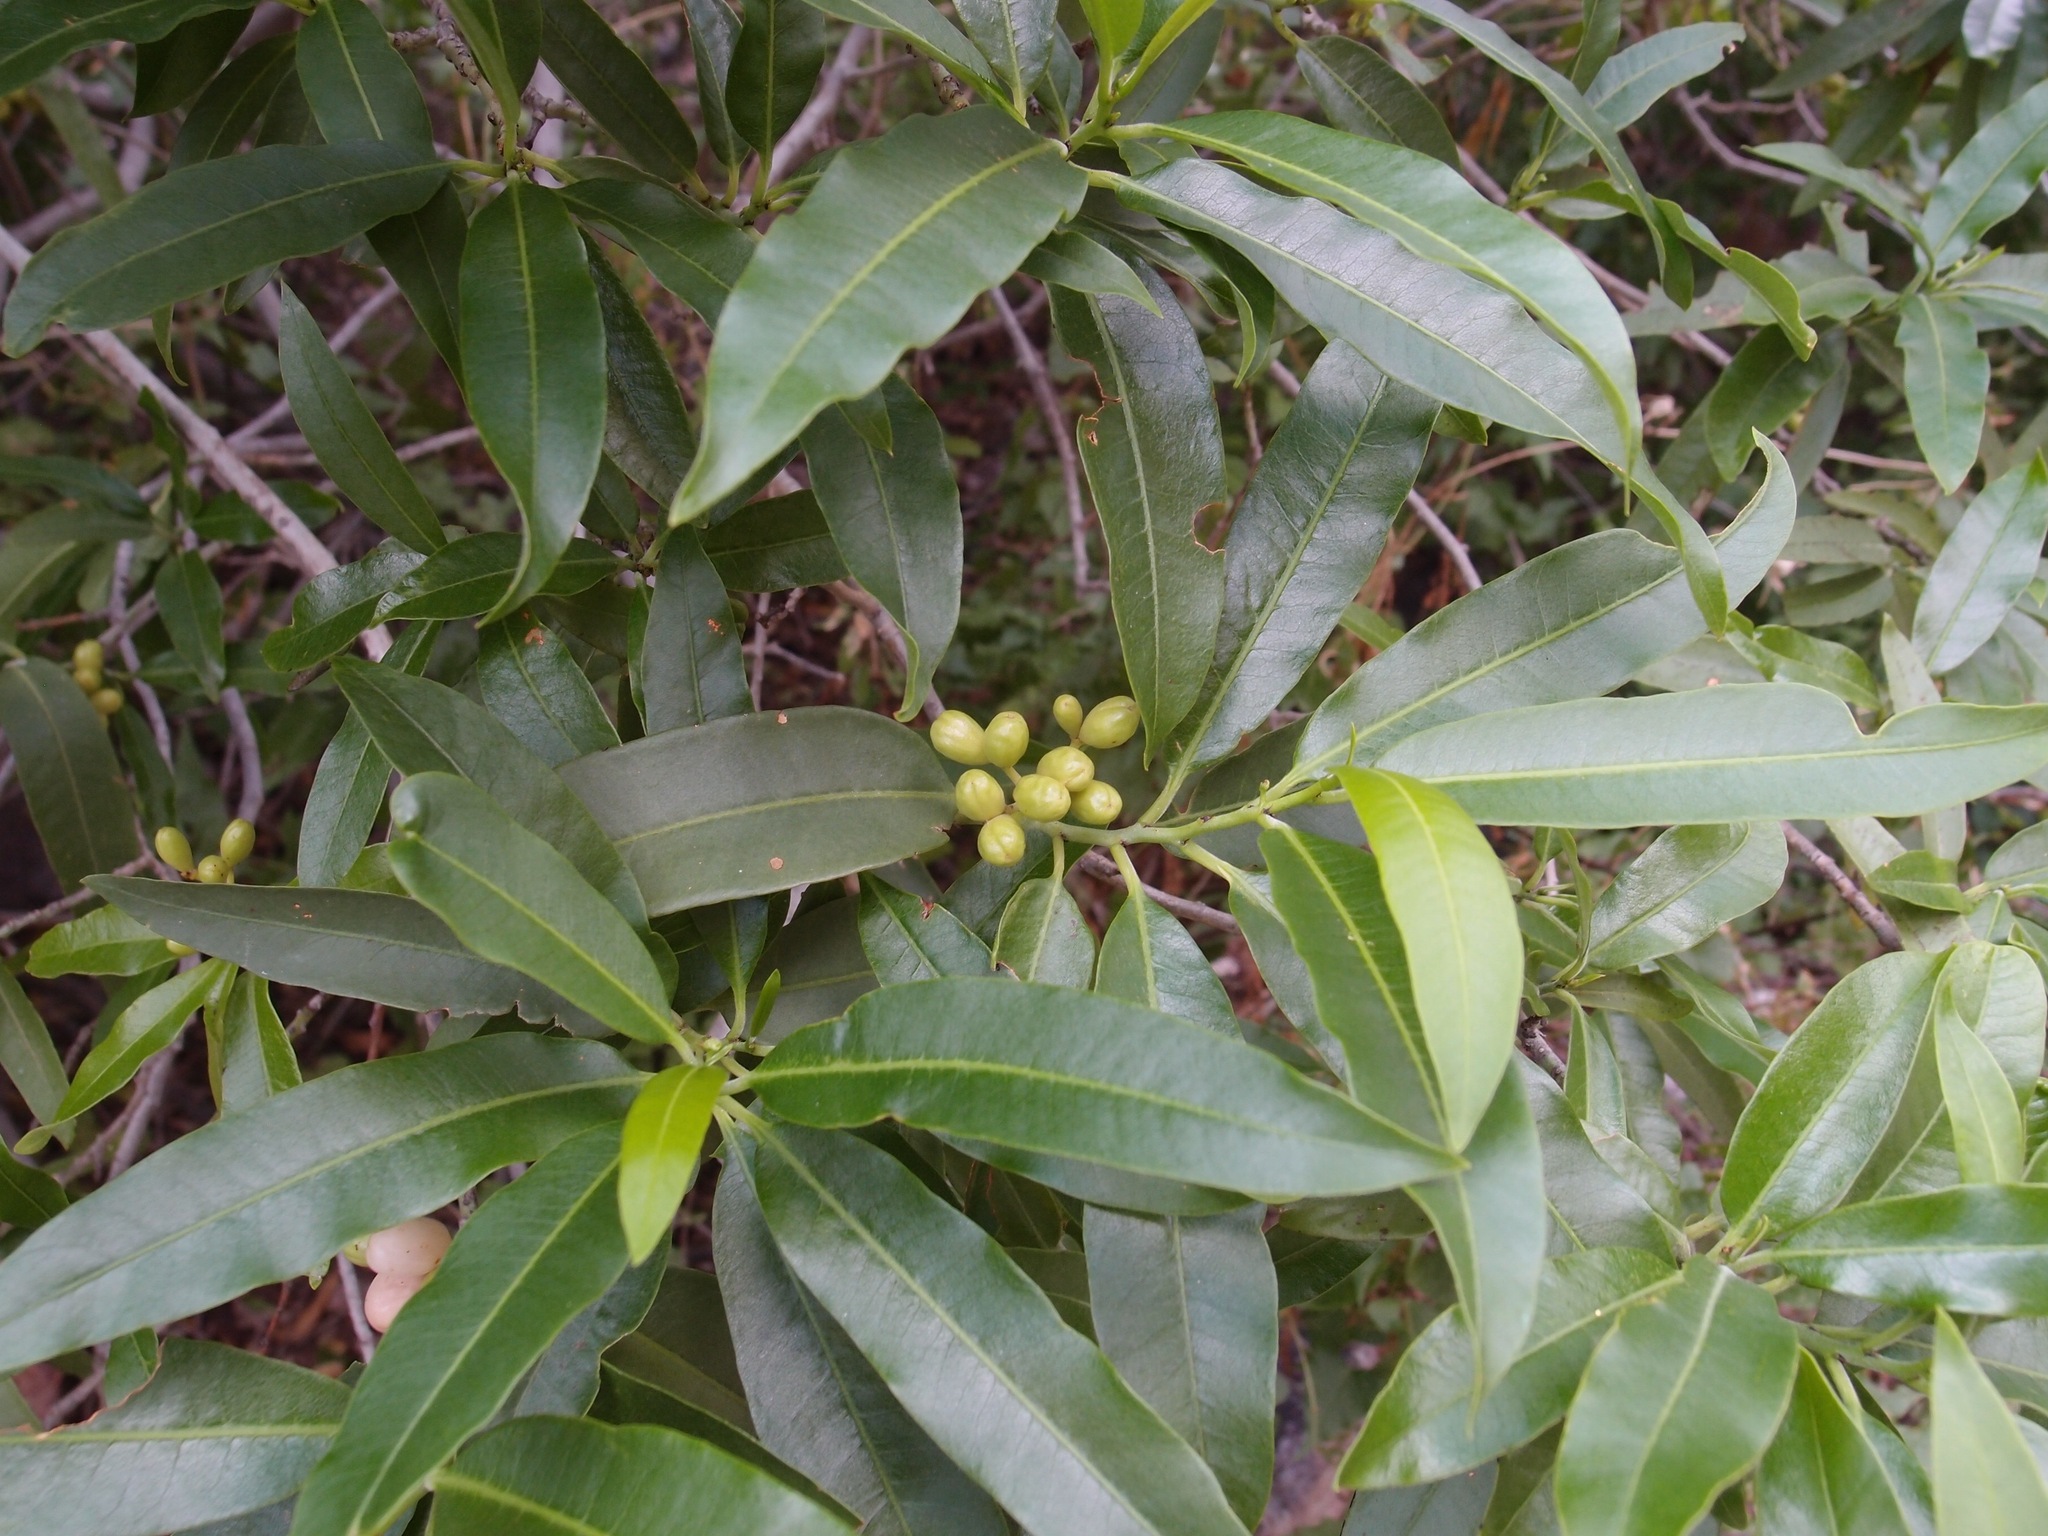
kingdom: Plantae
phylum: Tracheophyta
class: Magnoliopsida
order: Sapindales
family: Sapindaceae
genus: Sapindus
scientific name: Sapindus saponaria
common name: Wingleaf soapberry
